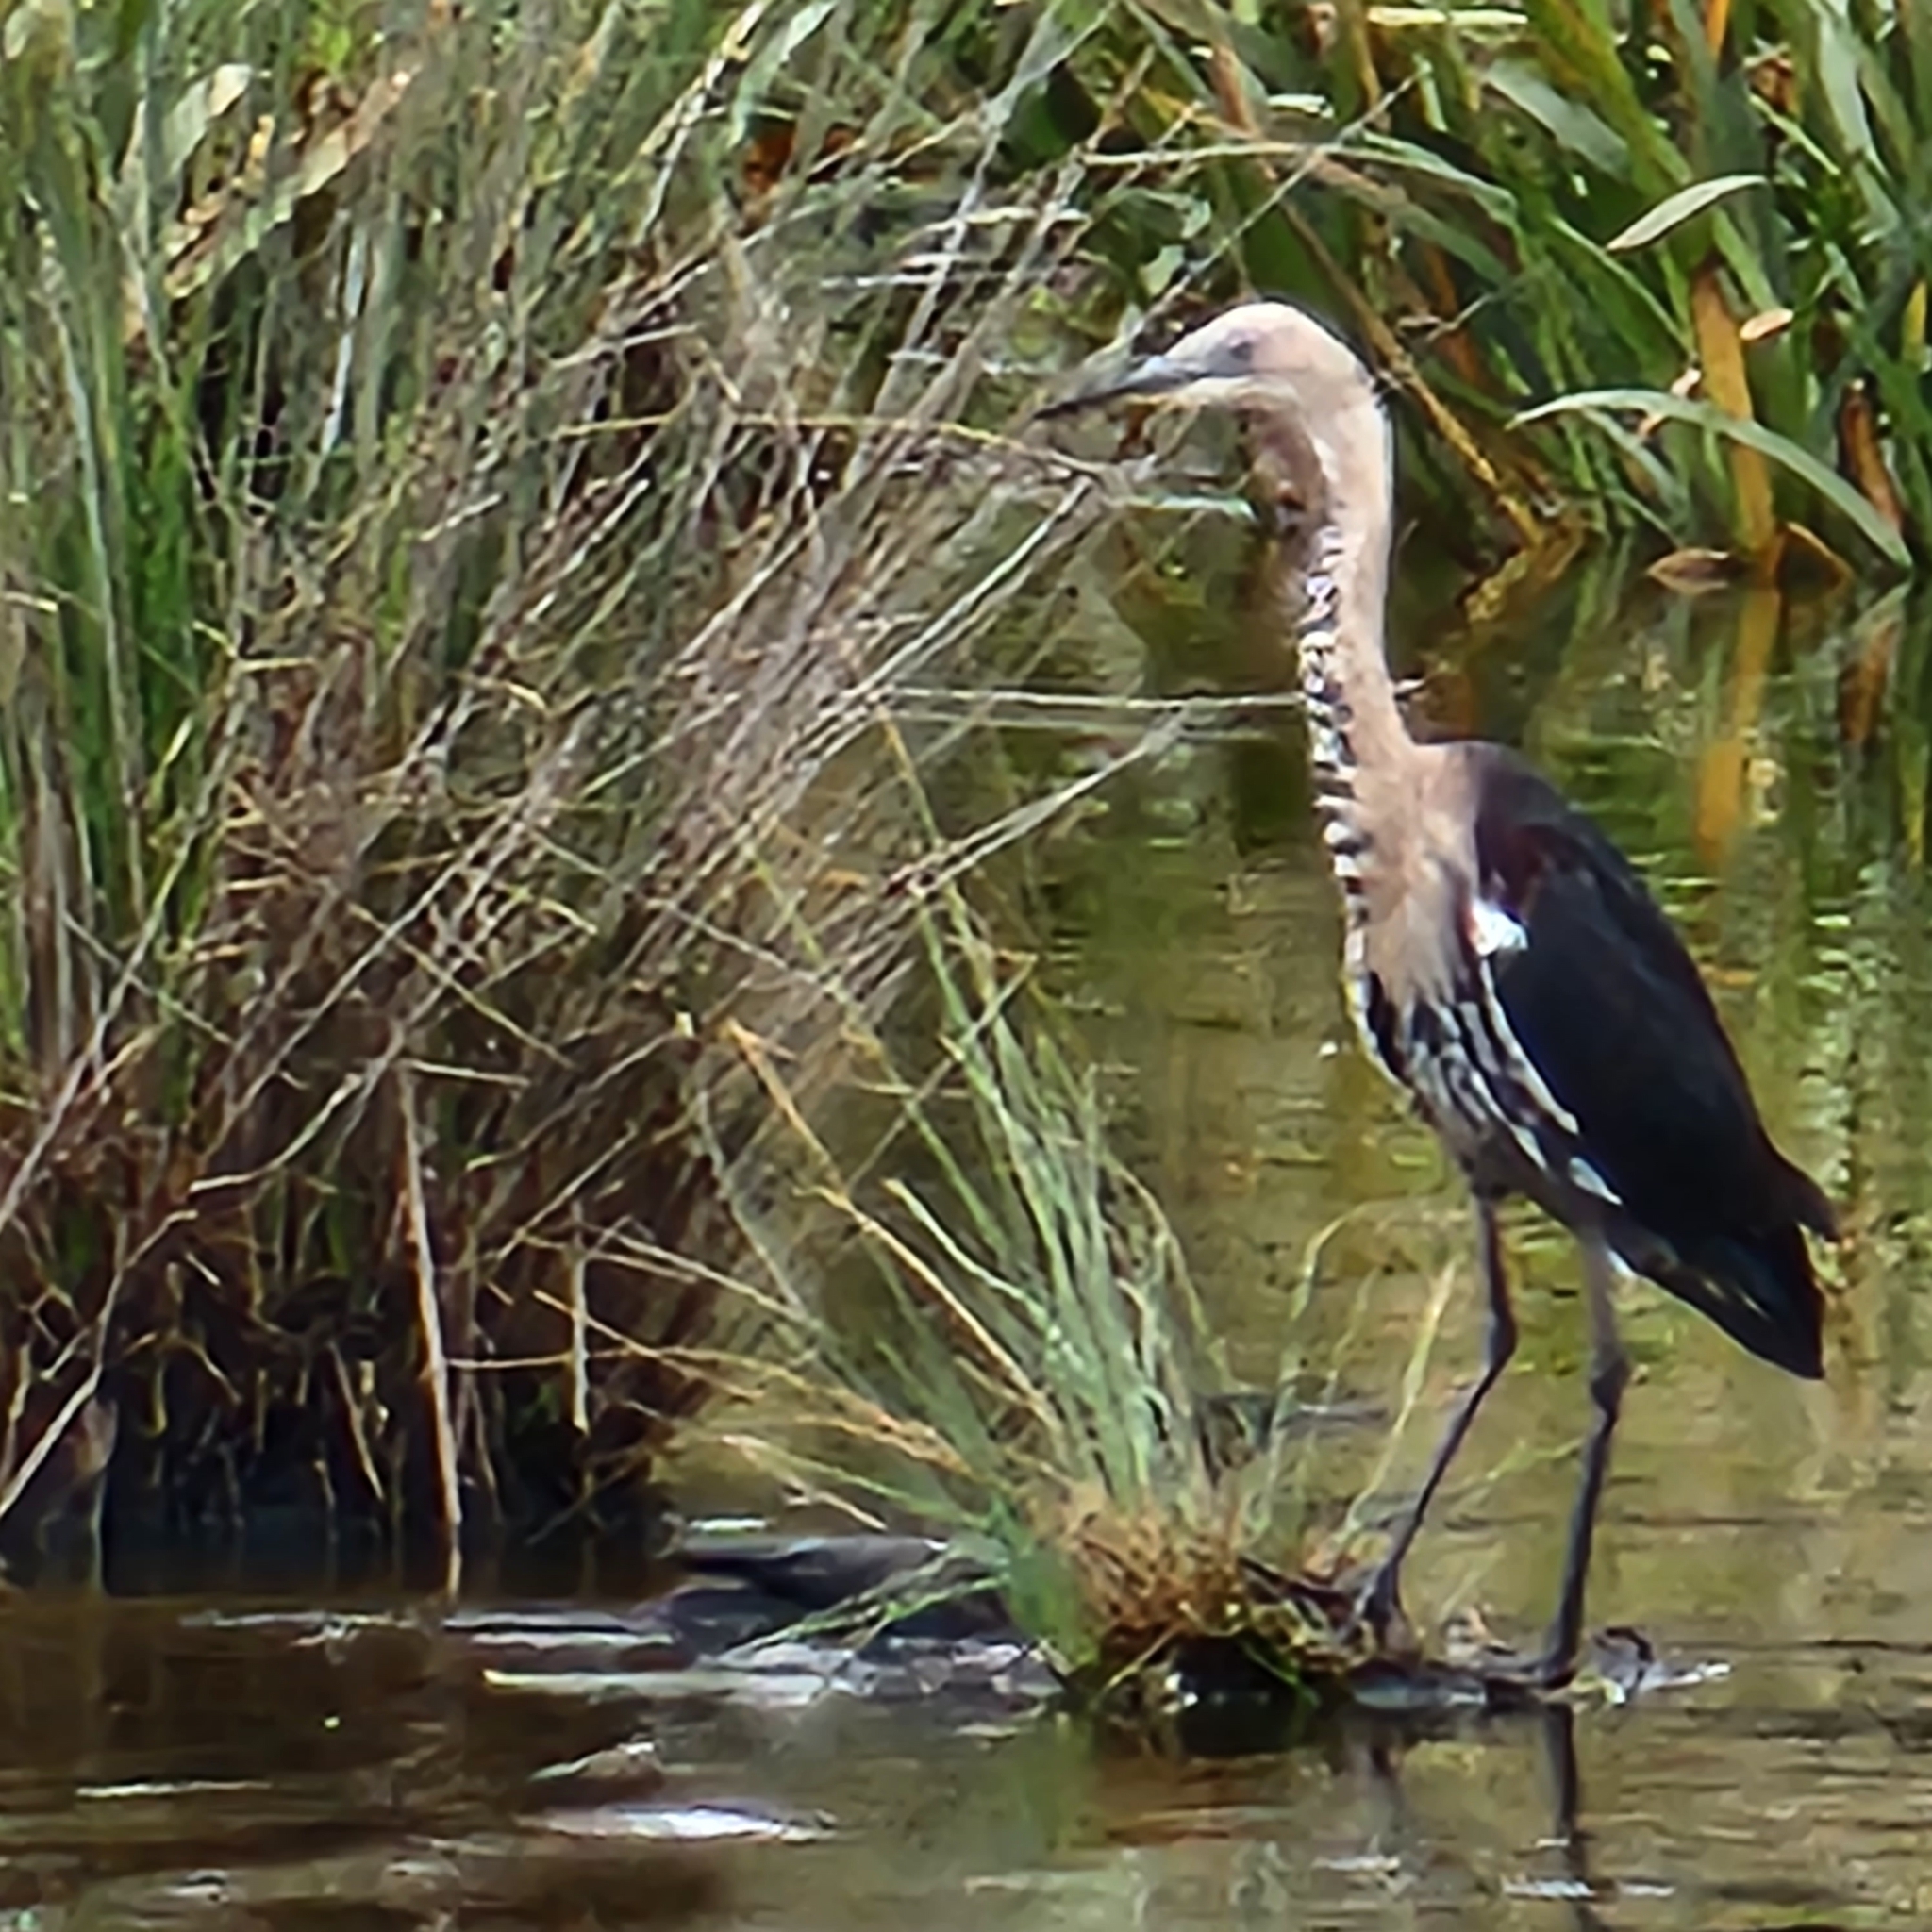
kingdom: Animalia
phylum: Chordata
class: Aves
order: Pelecaniformes
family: Ardeidae
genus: Ardea
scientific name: Ardea pacifica
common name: White-necked heron
